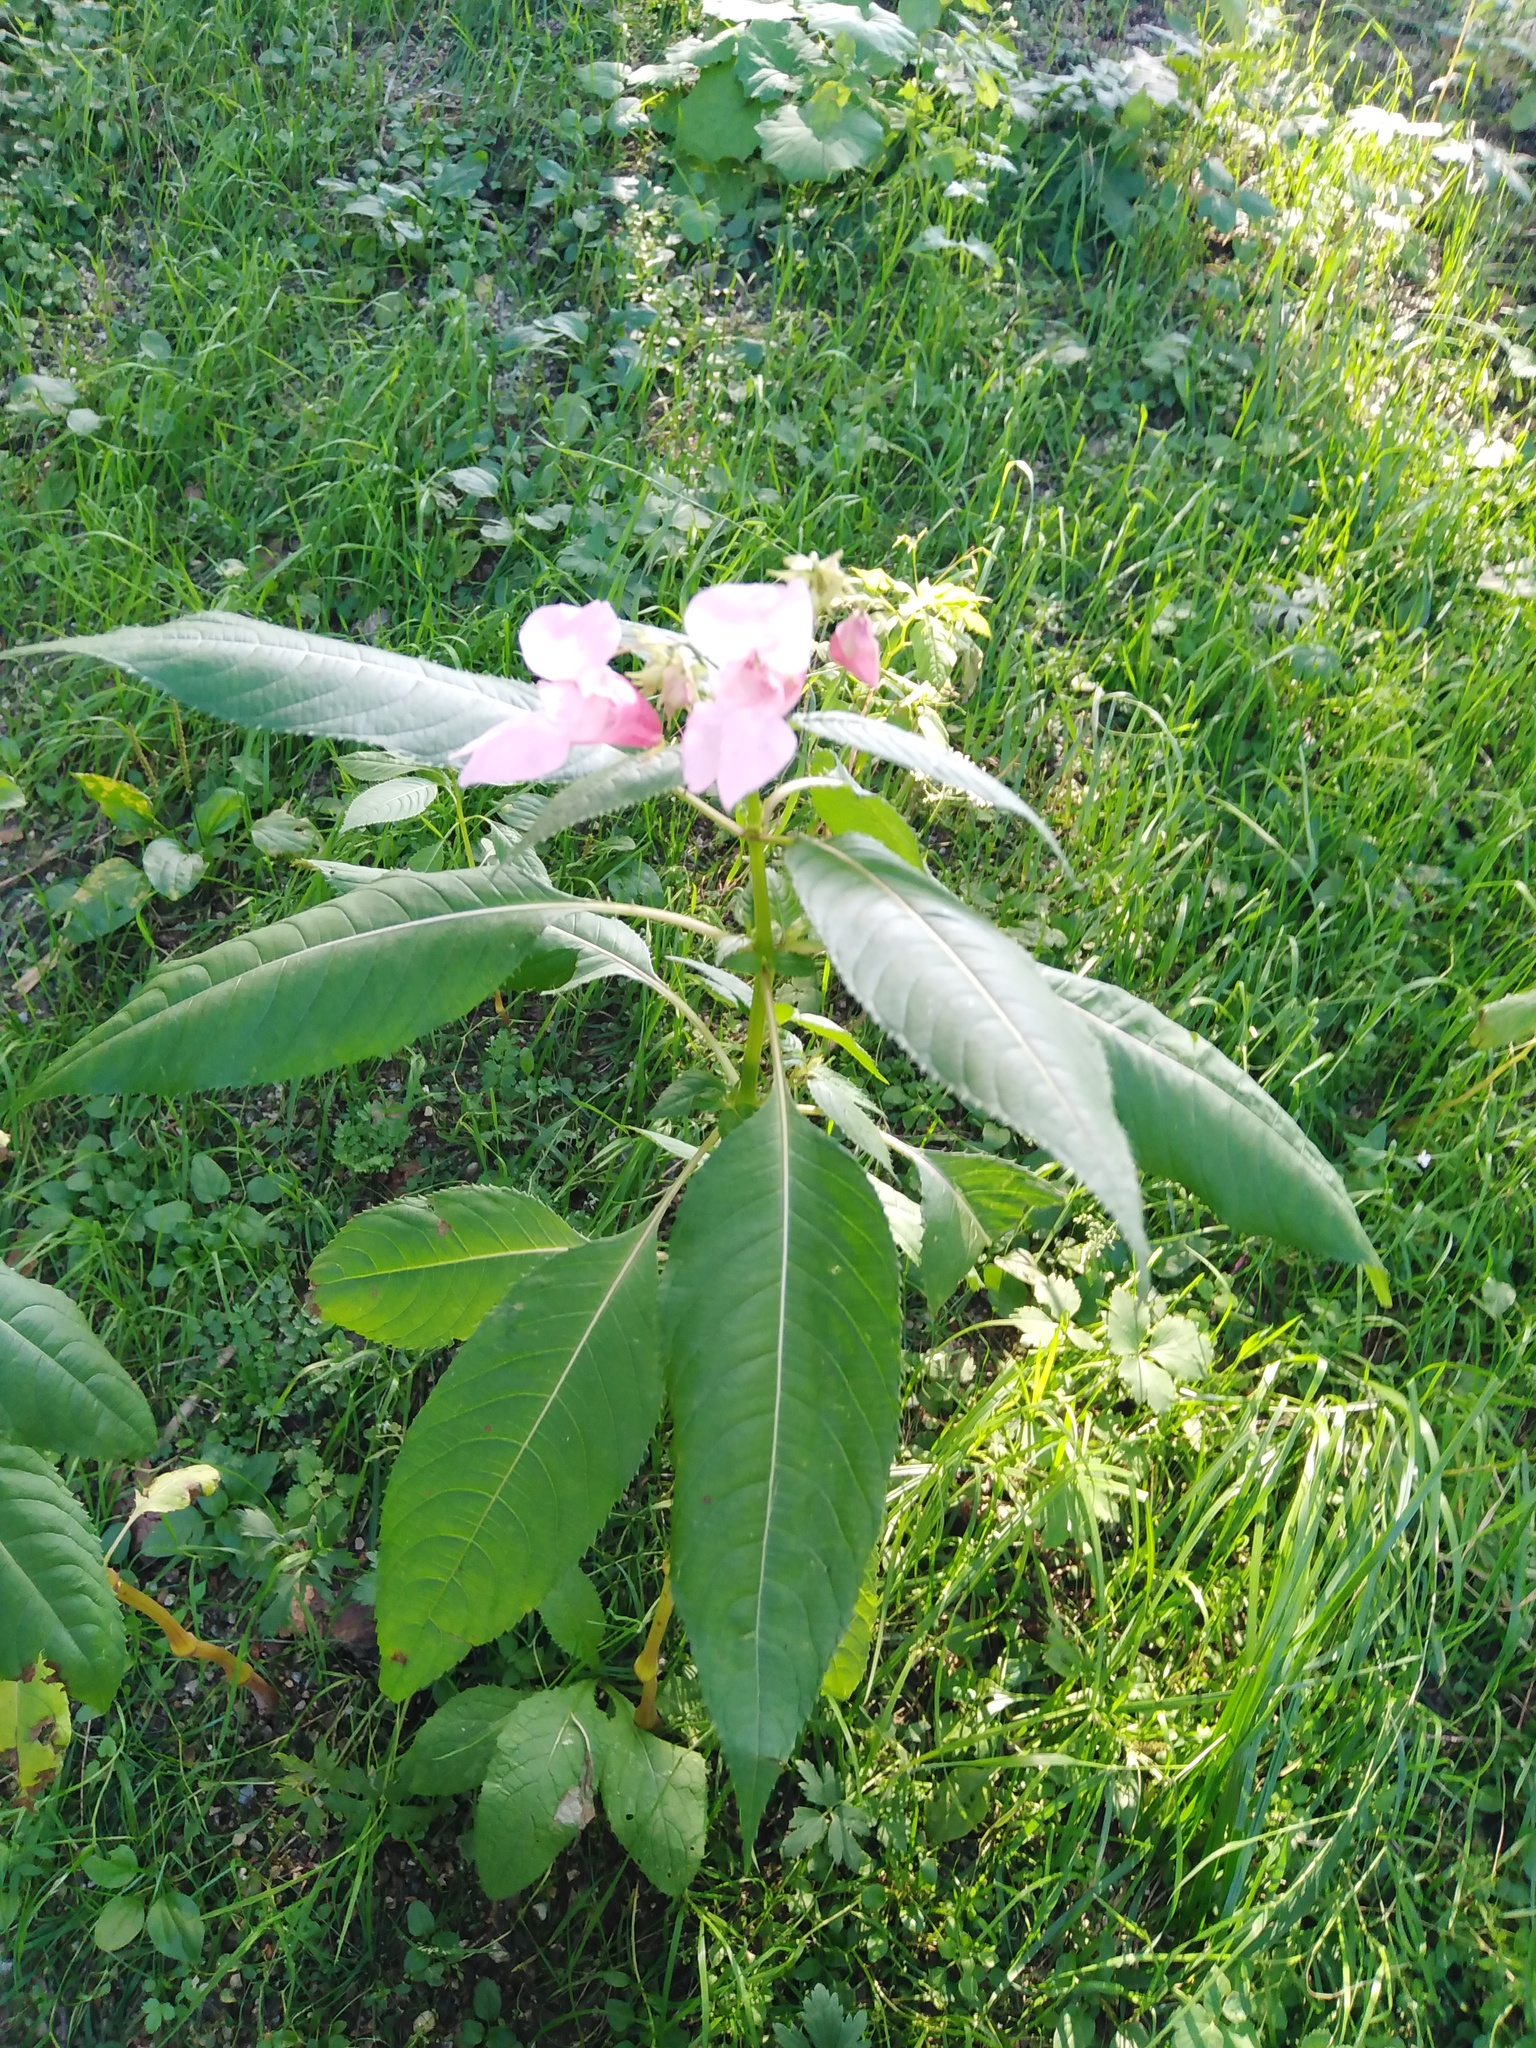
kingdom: Plantae
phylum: Tracheophyta
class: Magnoliopsida
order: Ericales
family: Balsaminaceae
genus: Impatiens
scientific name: Impatiens glandulifera
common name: Himalayan balsam
